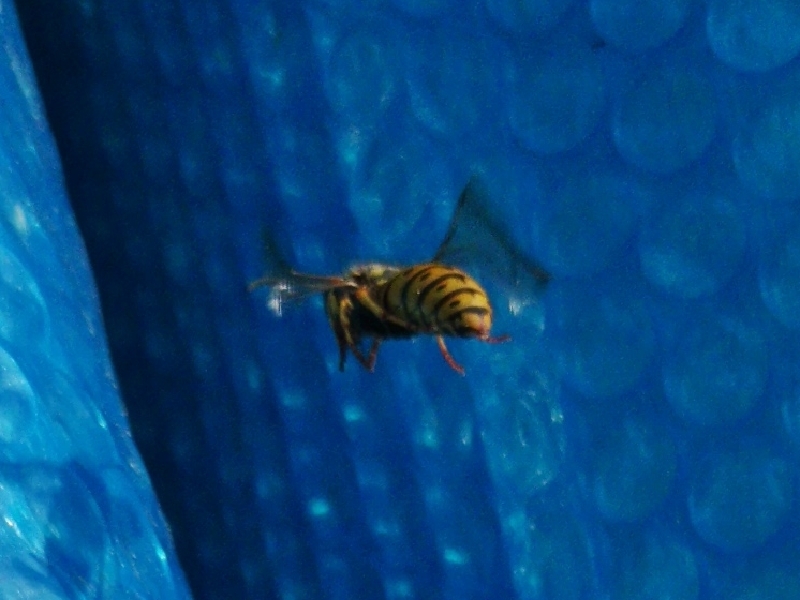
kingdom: Animalia
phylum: Arthropoda
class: Insecta
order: Hymenoptera
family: Vespidae
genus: Vespula
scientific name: Vespula germanica
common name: German wasp
